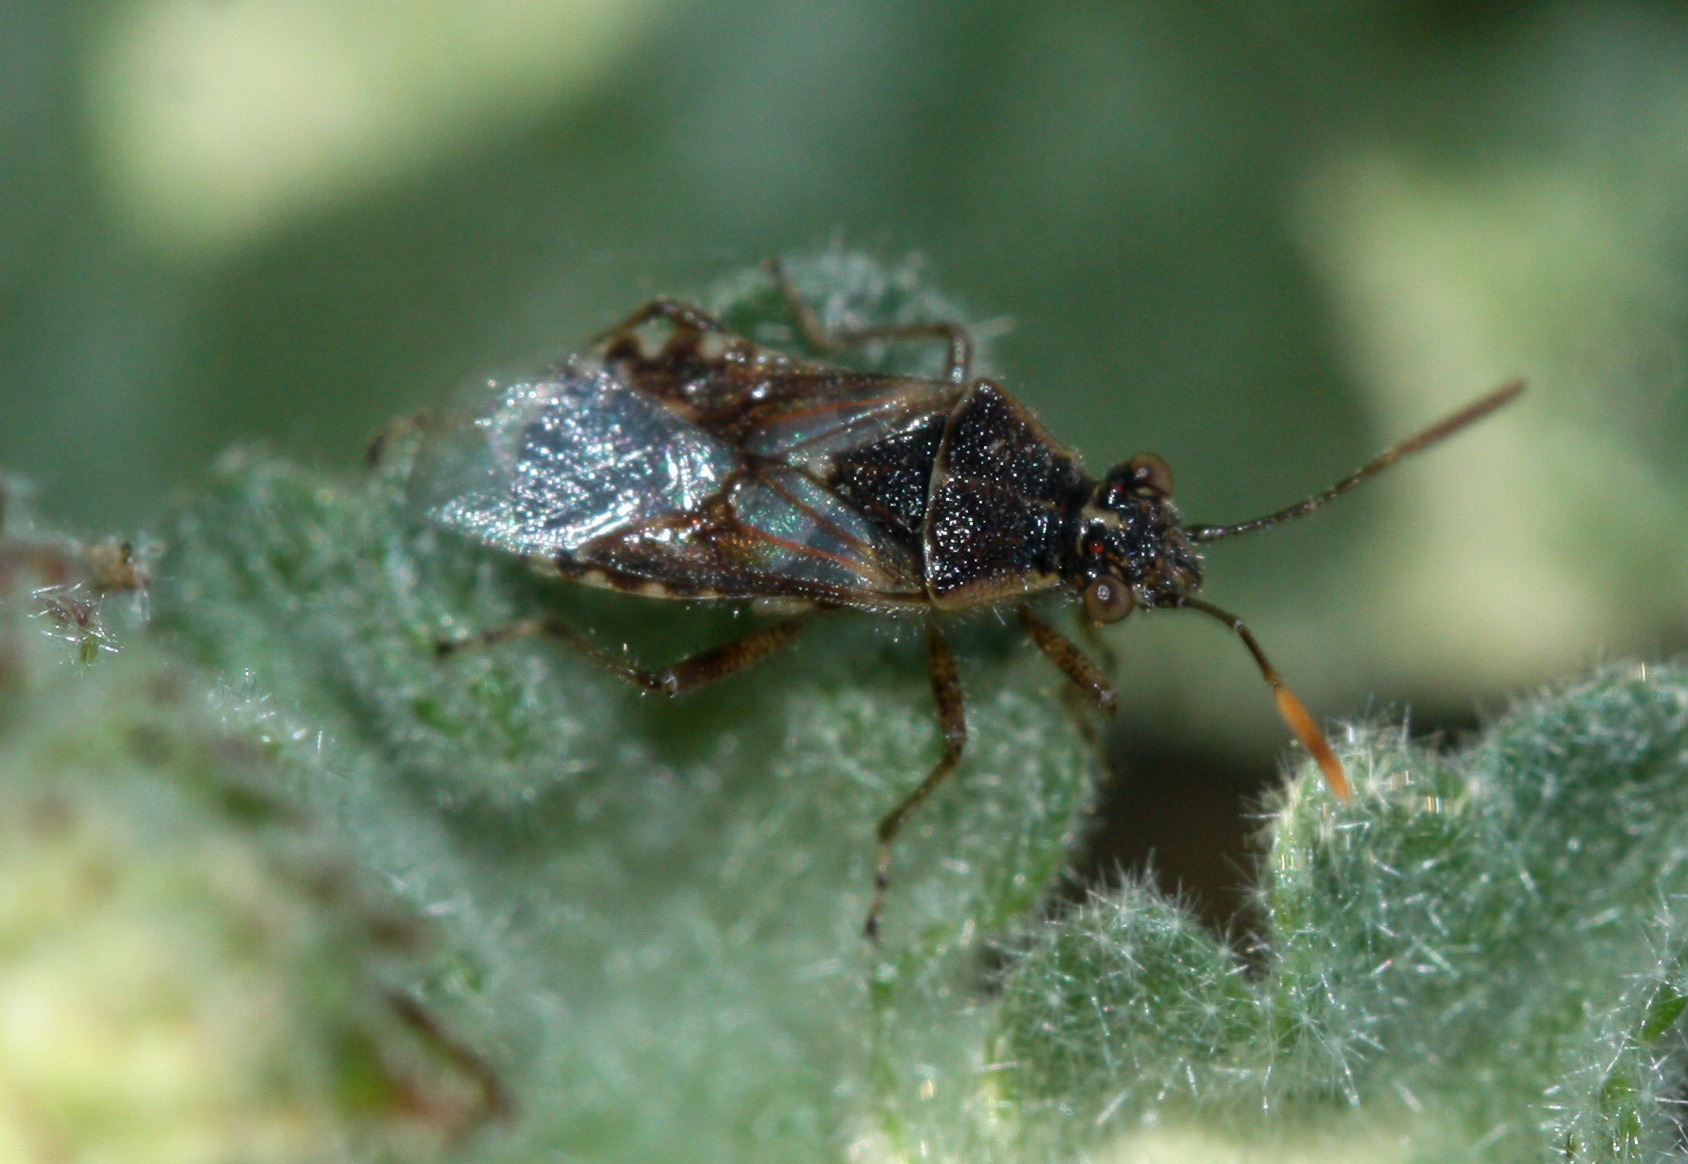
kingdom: Animalia
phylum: Arthropoda
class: Insecta
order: Hemiptera
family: Rhopalidae
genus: Liorhyssus
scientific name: Liorhyssus hyalinus
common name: Scentless plant bug
